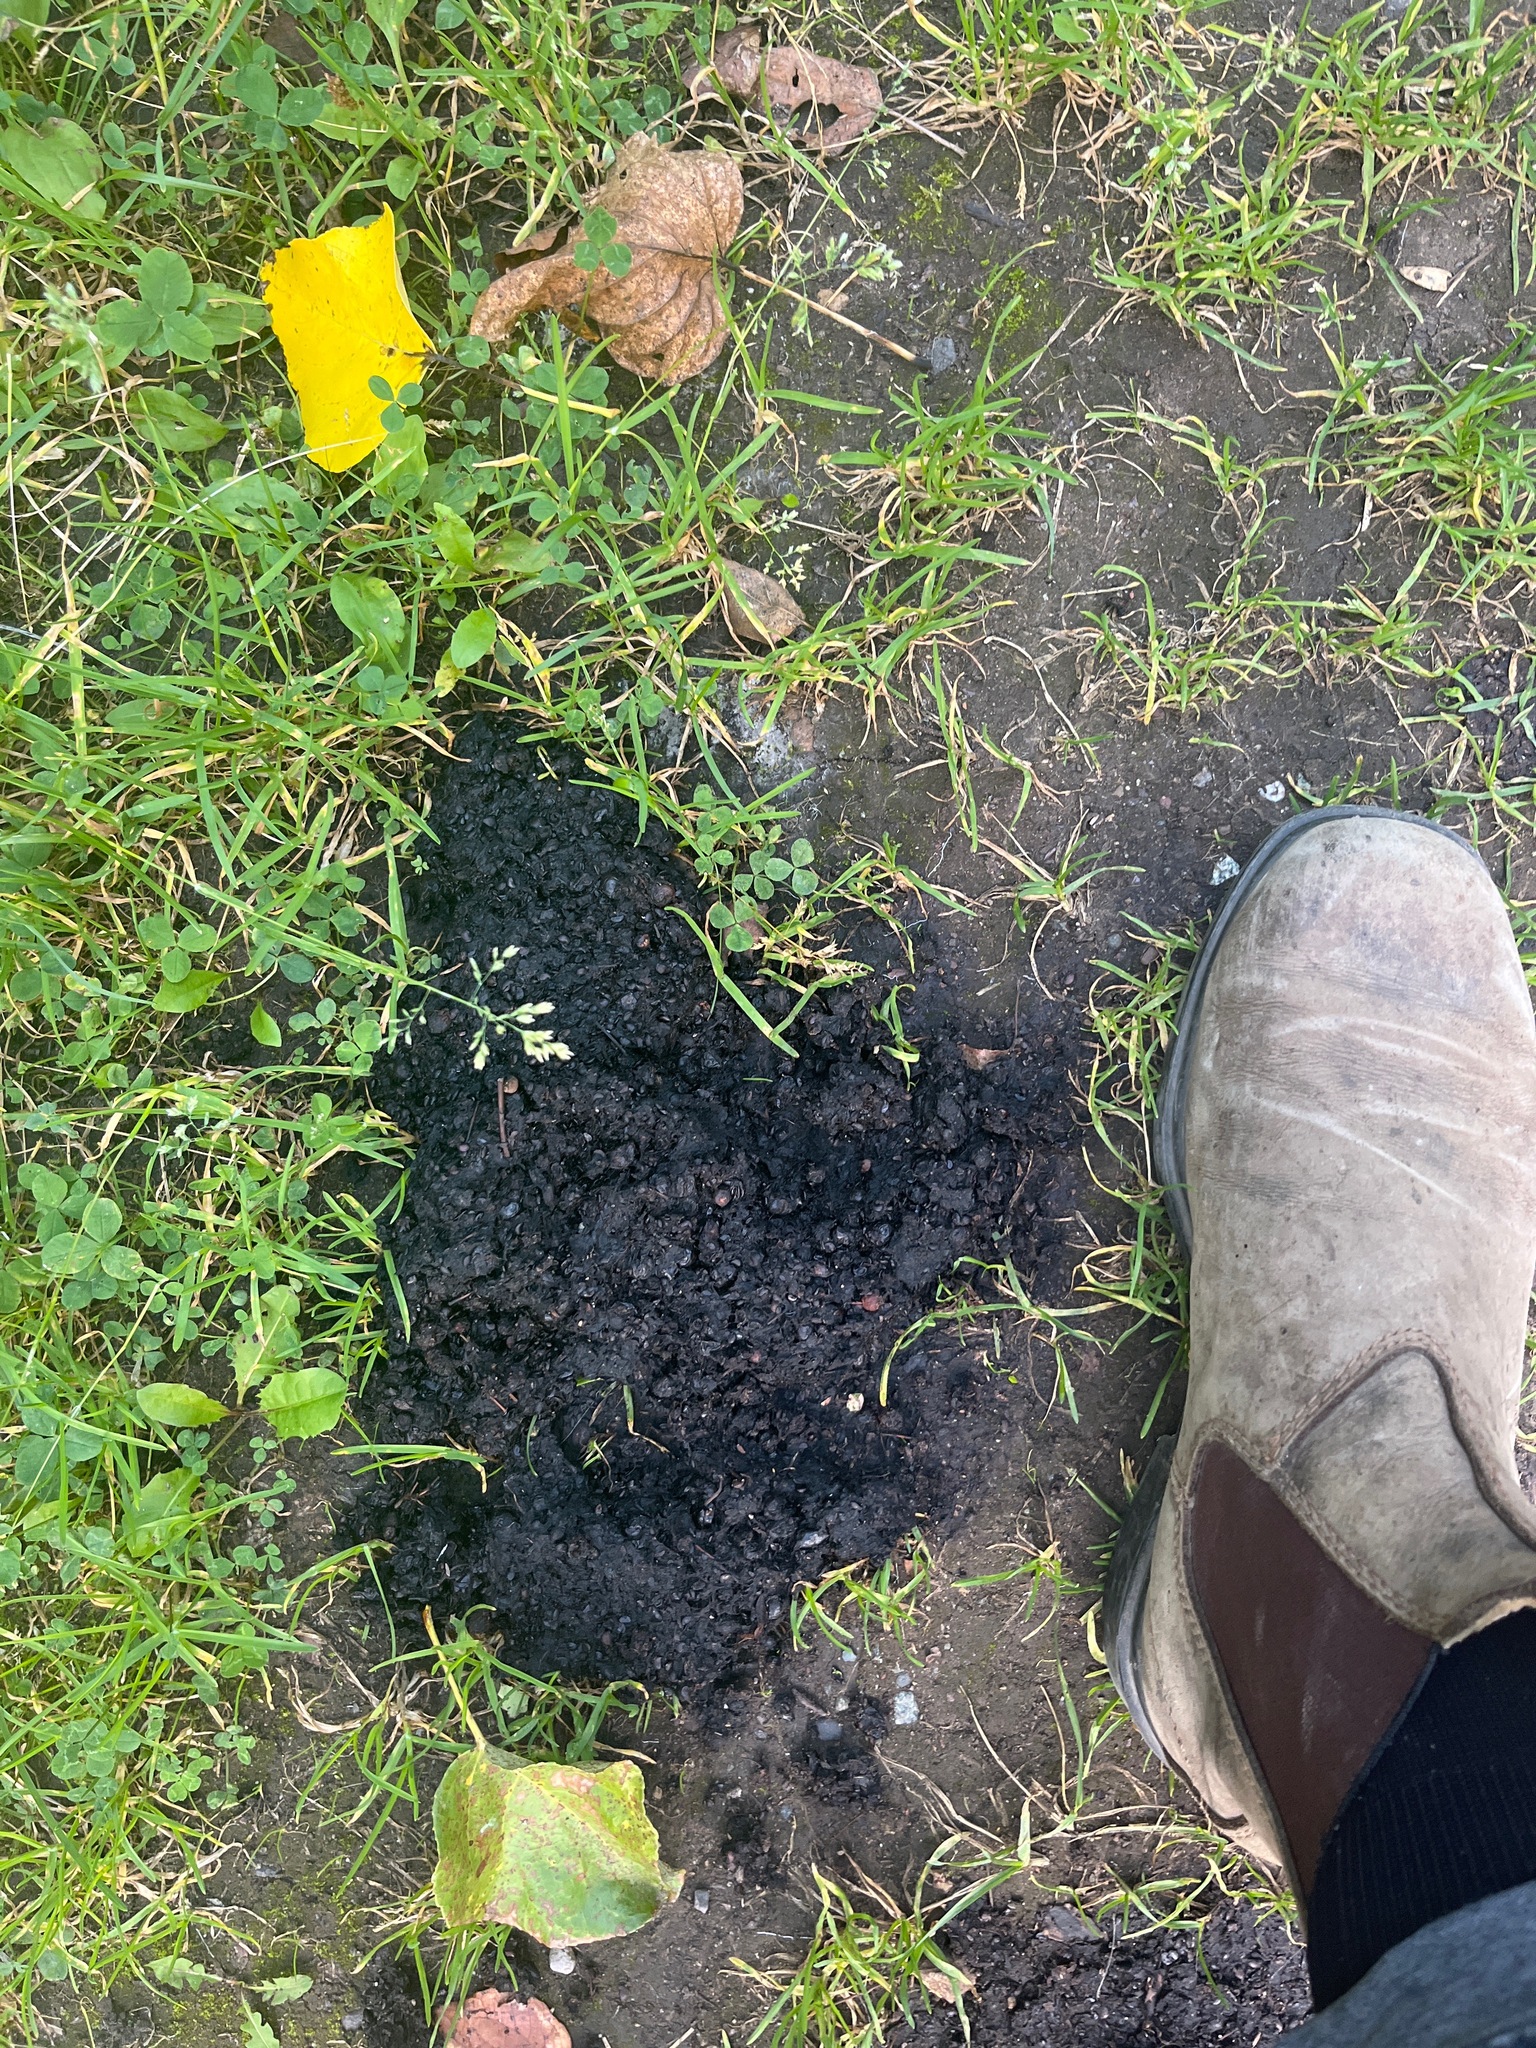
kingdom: Animalia
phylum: Chordata
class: Mammalia
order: Carnivora
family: Ursidae
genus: Ursus
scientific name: Ursus americanus
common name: American black bear
